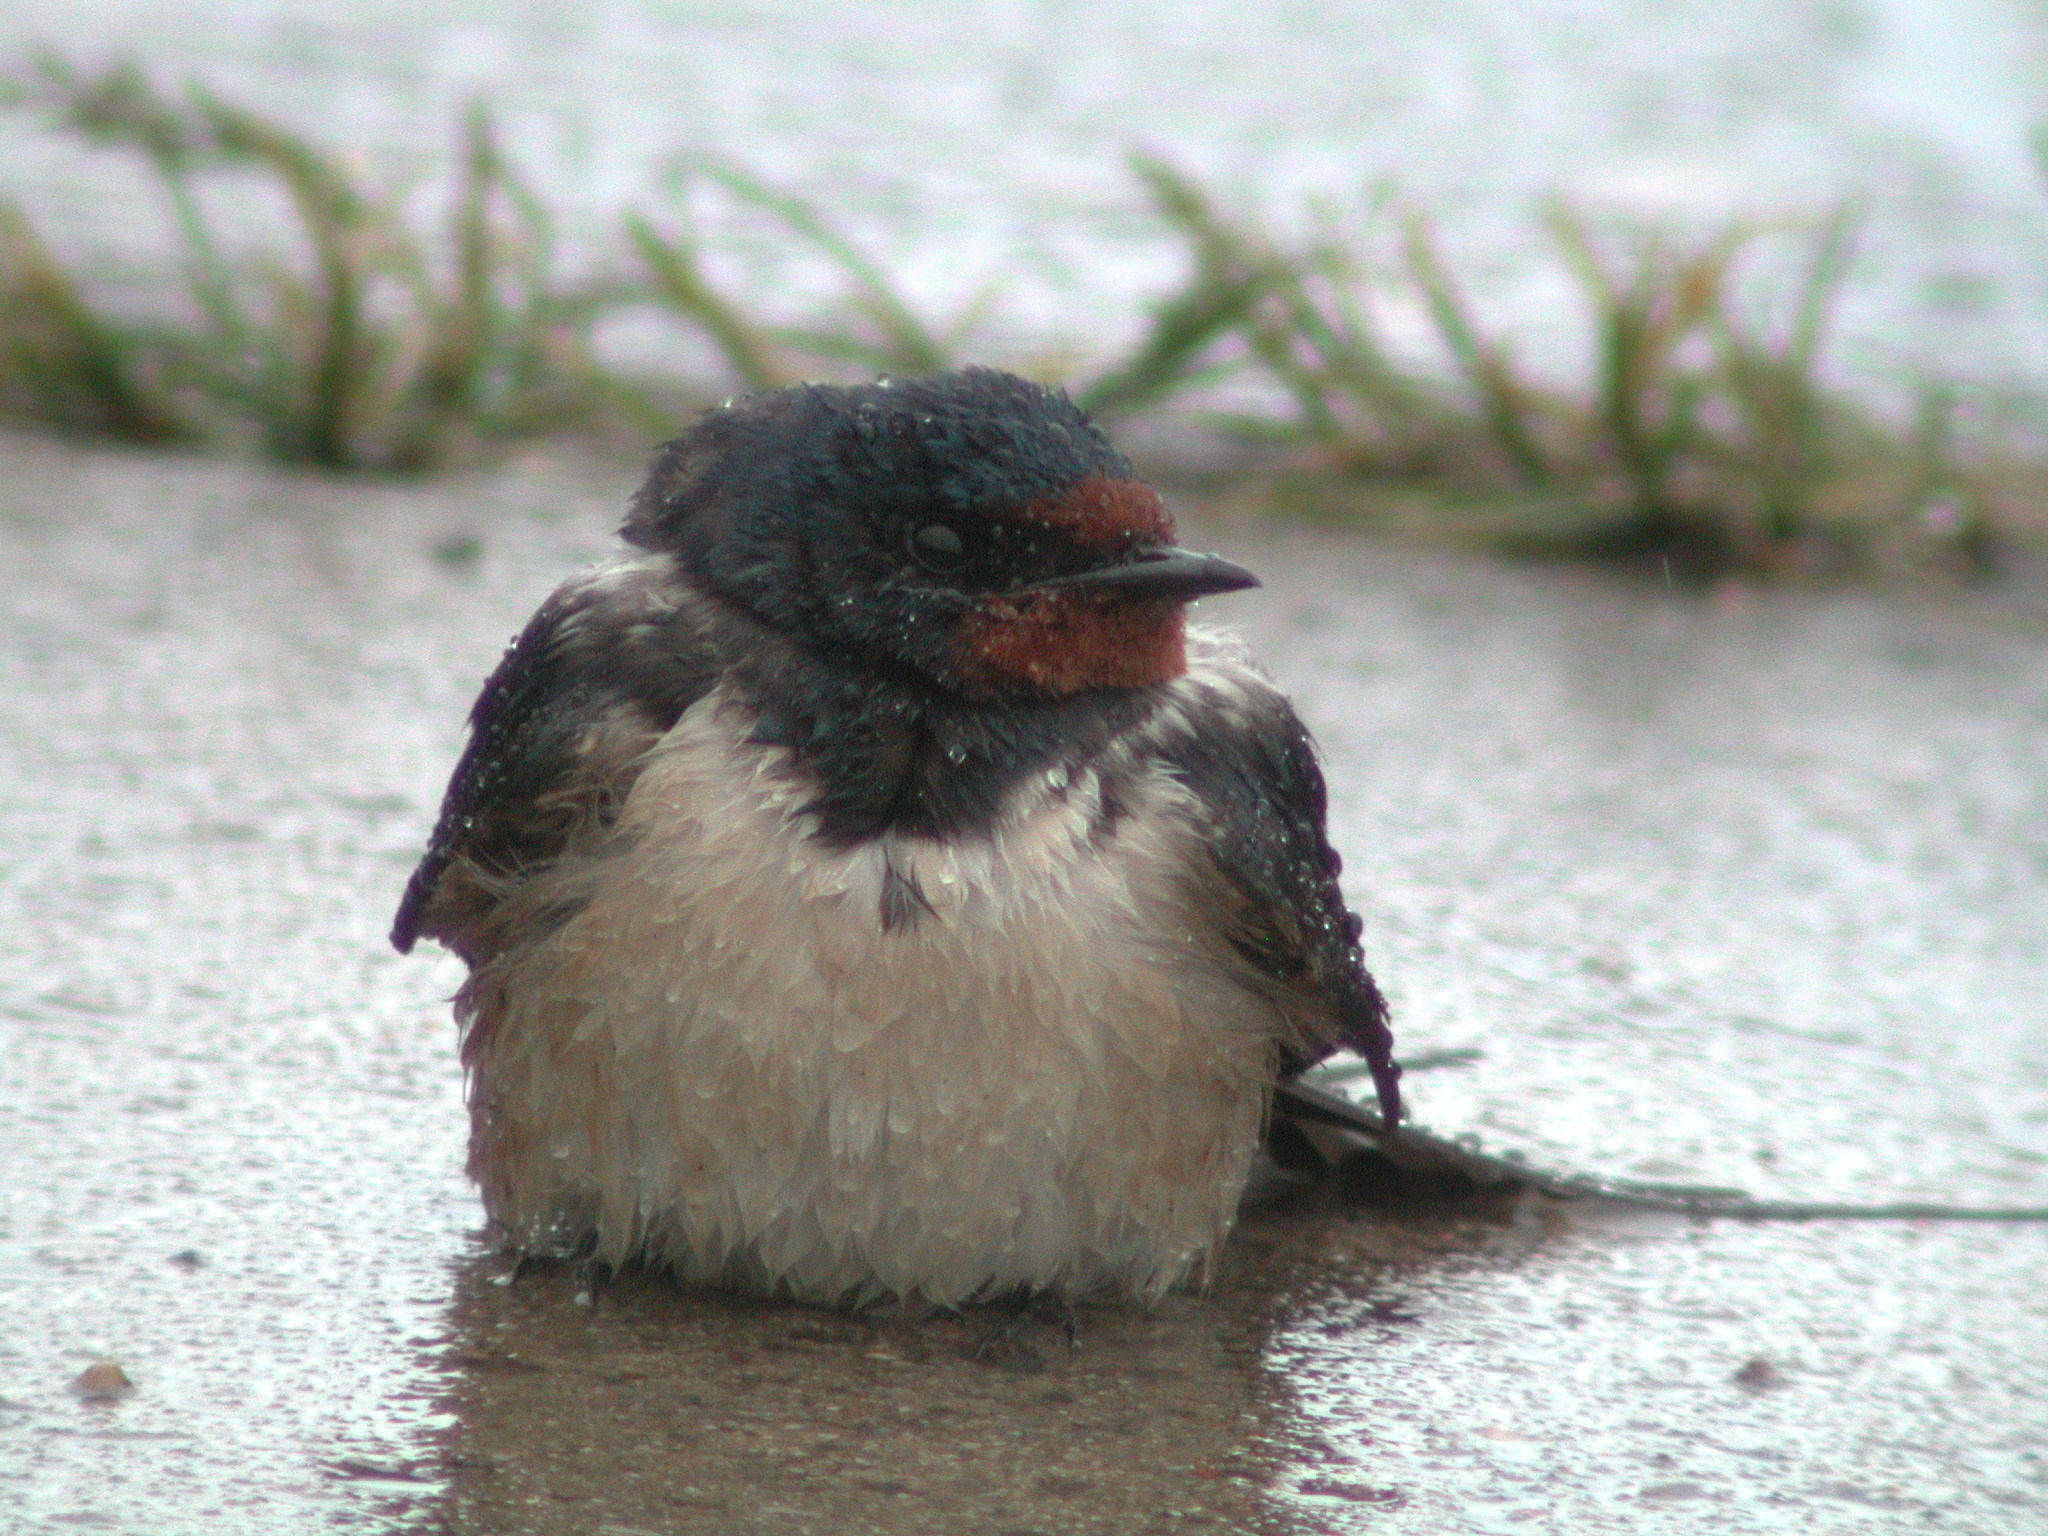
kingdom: Animalia
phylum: Chordata
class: Aves
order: Passeriformes
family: Hirundinidae
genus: Hirundo
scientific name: Hirundo rustica
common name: Barn swallow
